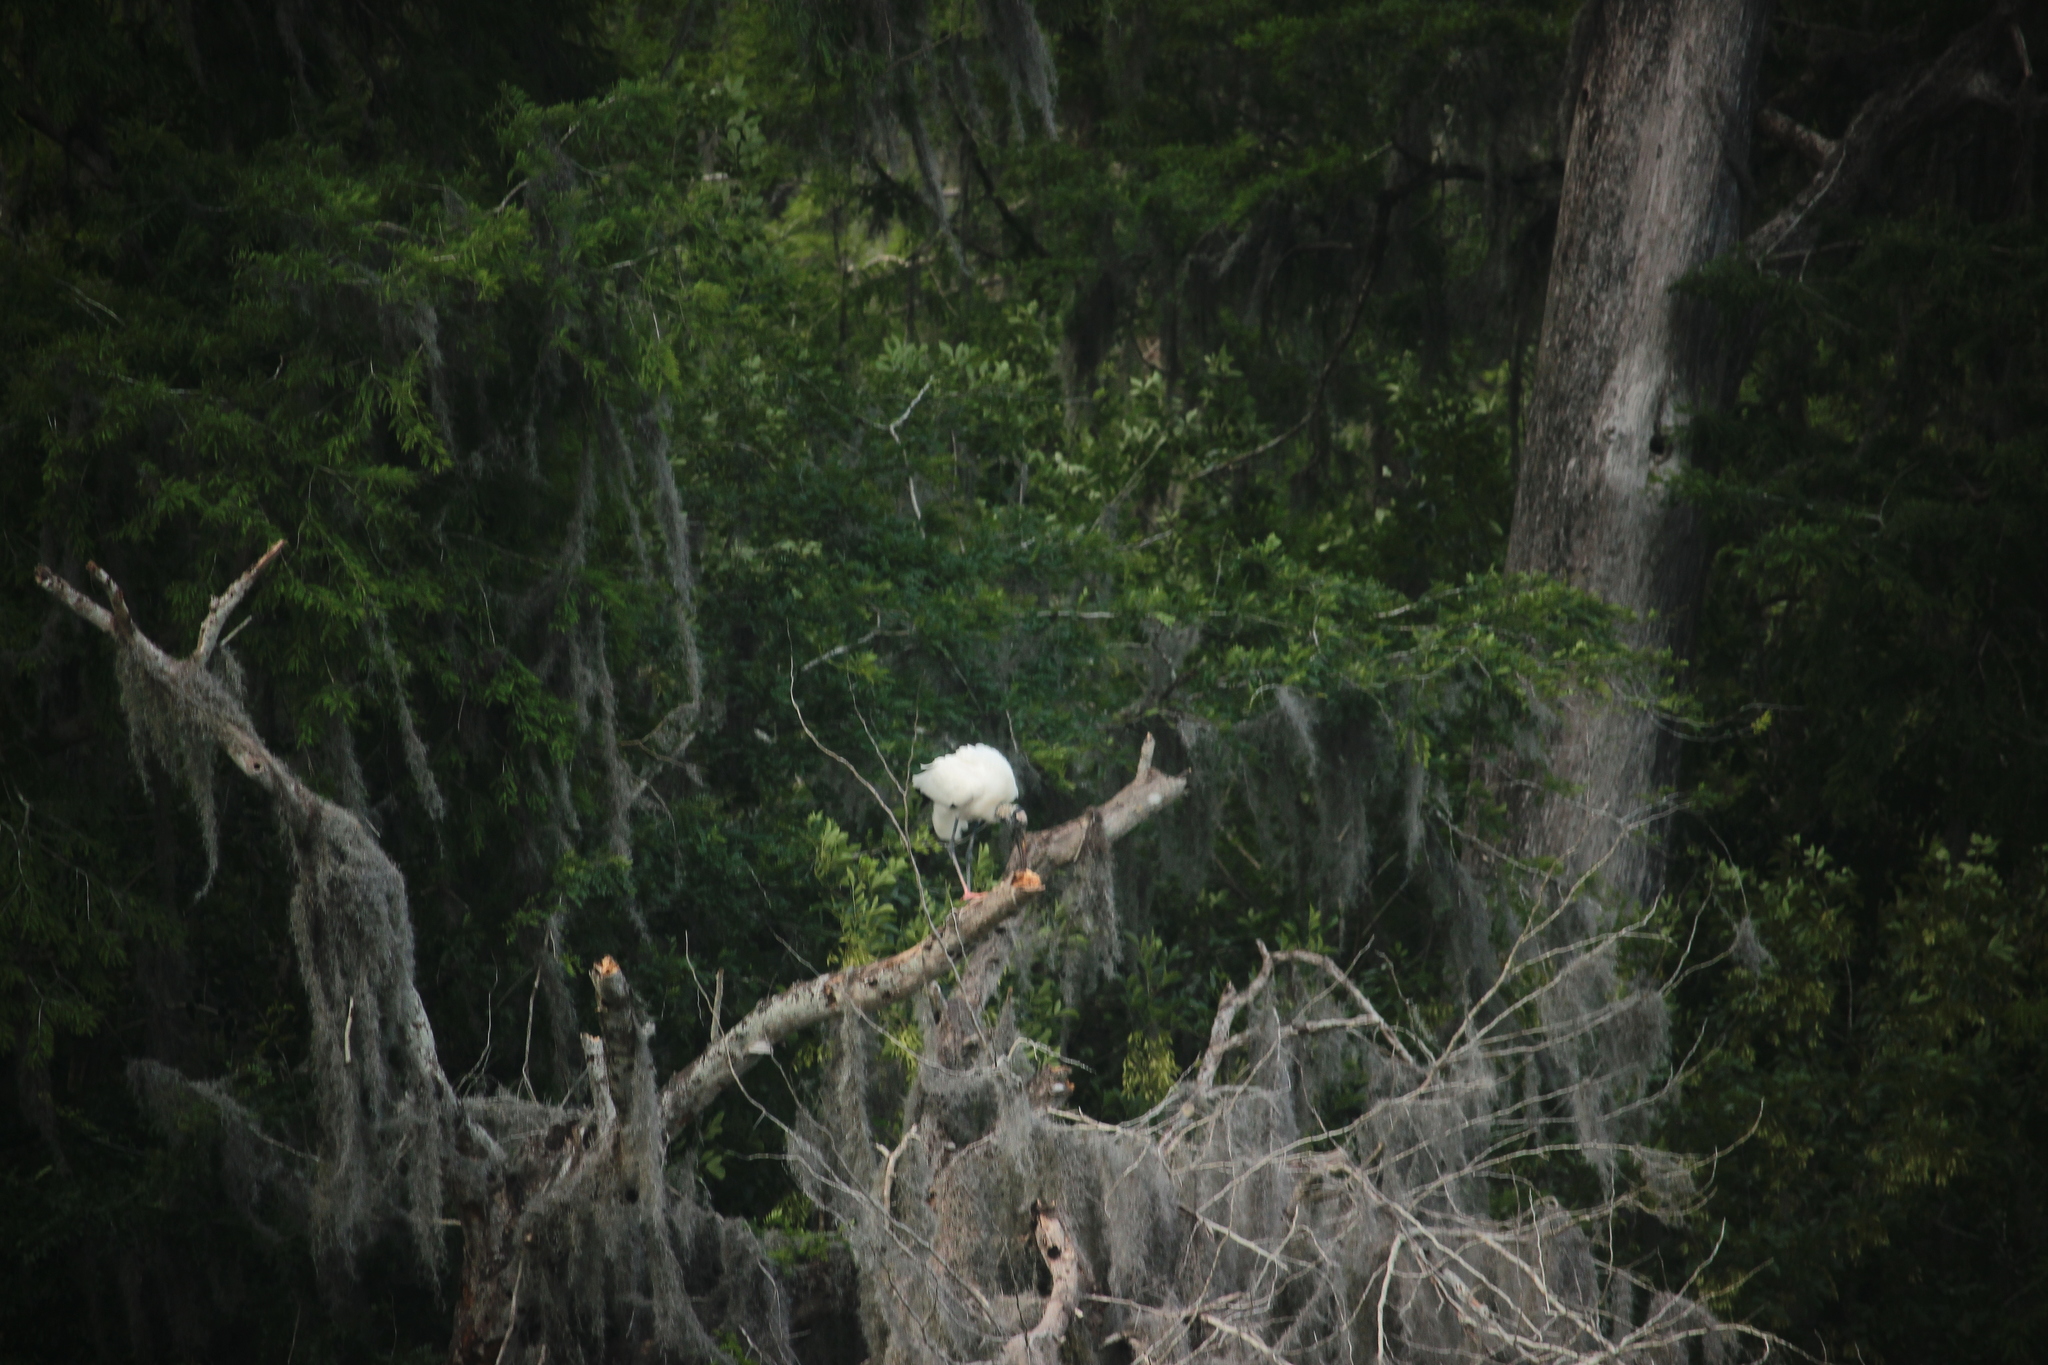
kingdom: Animalia
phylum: Chordata
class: Aves
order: Ciconiiformes
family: Ciconiidae
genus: Mycteria
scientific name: Mycteria americana
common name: Wood stork
